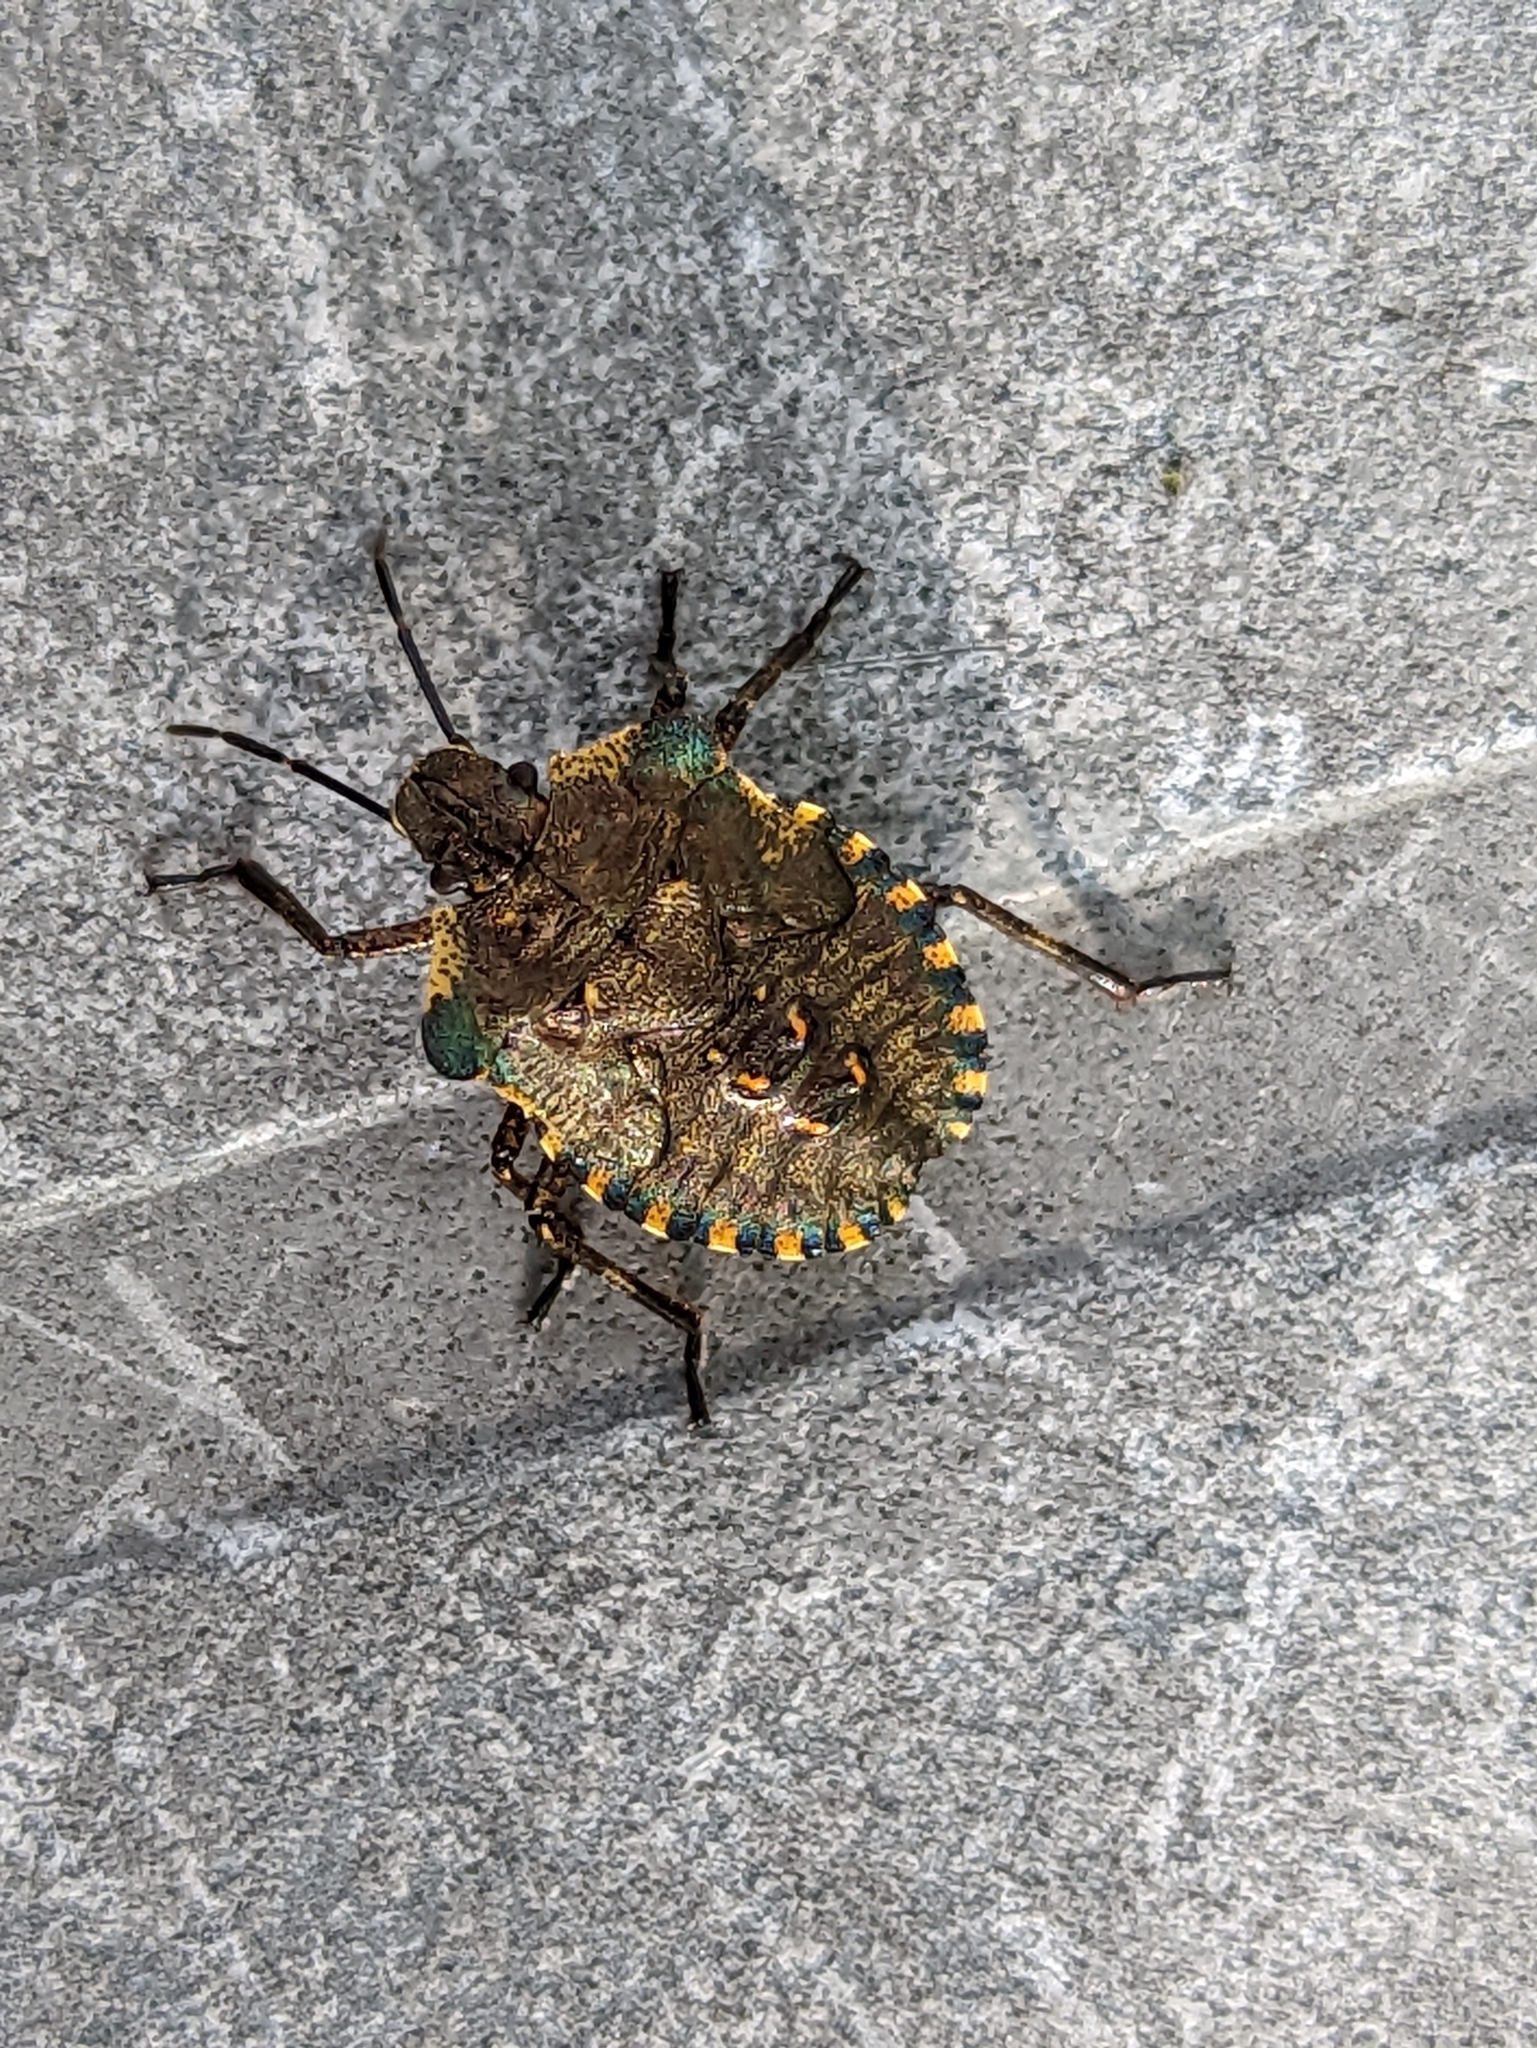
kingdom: Animalia
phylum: Arthropoda
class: Insecta
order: Hemiptera
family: Pentatomidae
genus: Pentatoma
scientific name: Pentatoma rufipes
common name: Forest bug
